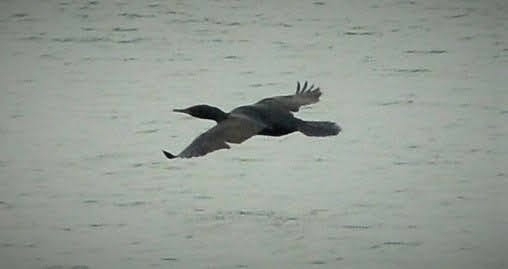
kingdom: Animalia
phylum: Chordata
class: Aves
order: Suliformes
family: Phalacrocoracidae
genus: Phalacrocorax
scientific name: Phalacrocorax fuscicollis
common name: Indian cormorant
